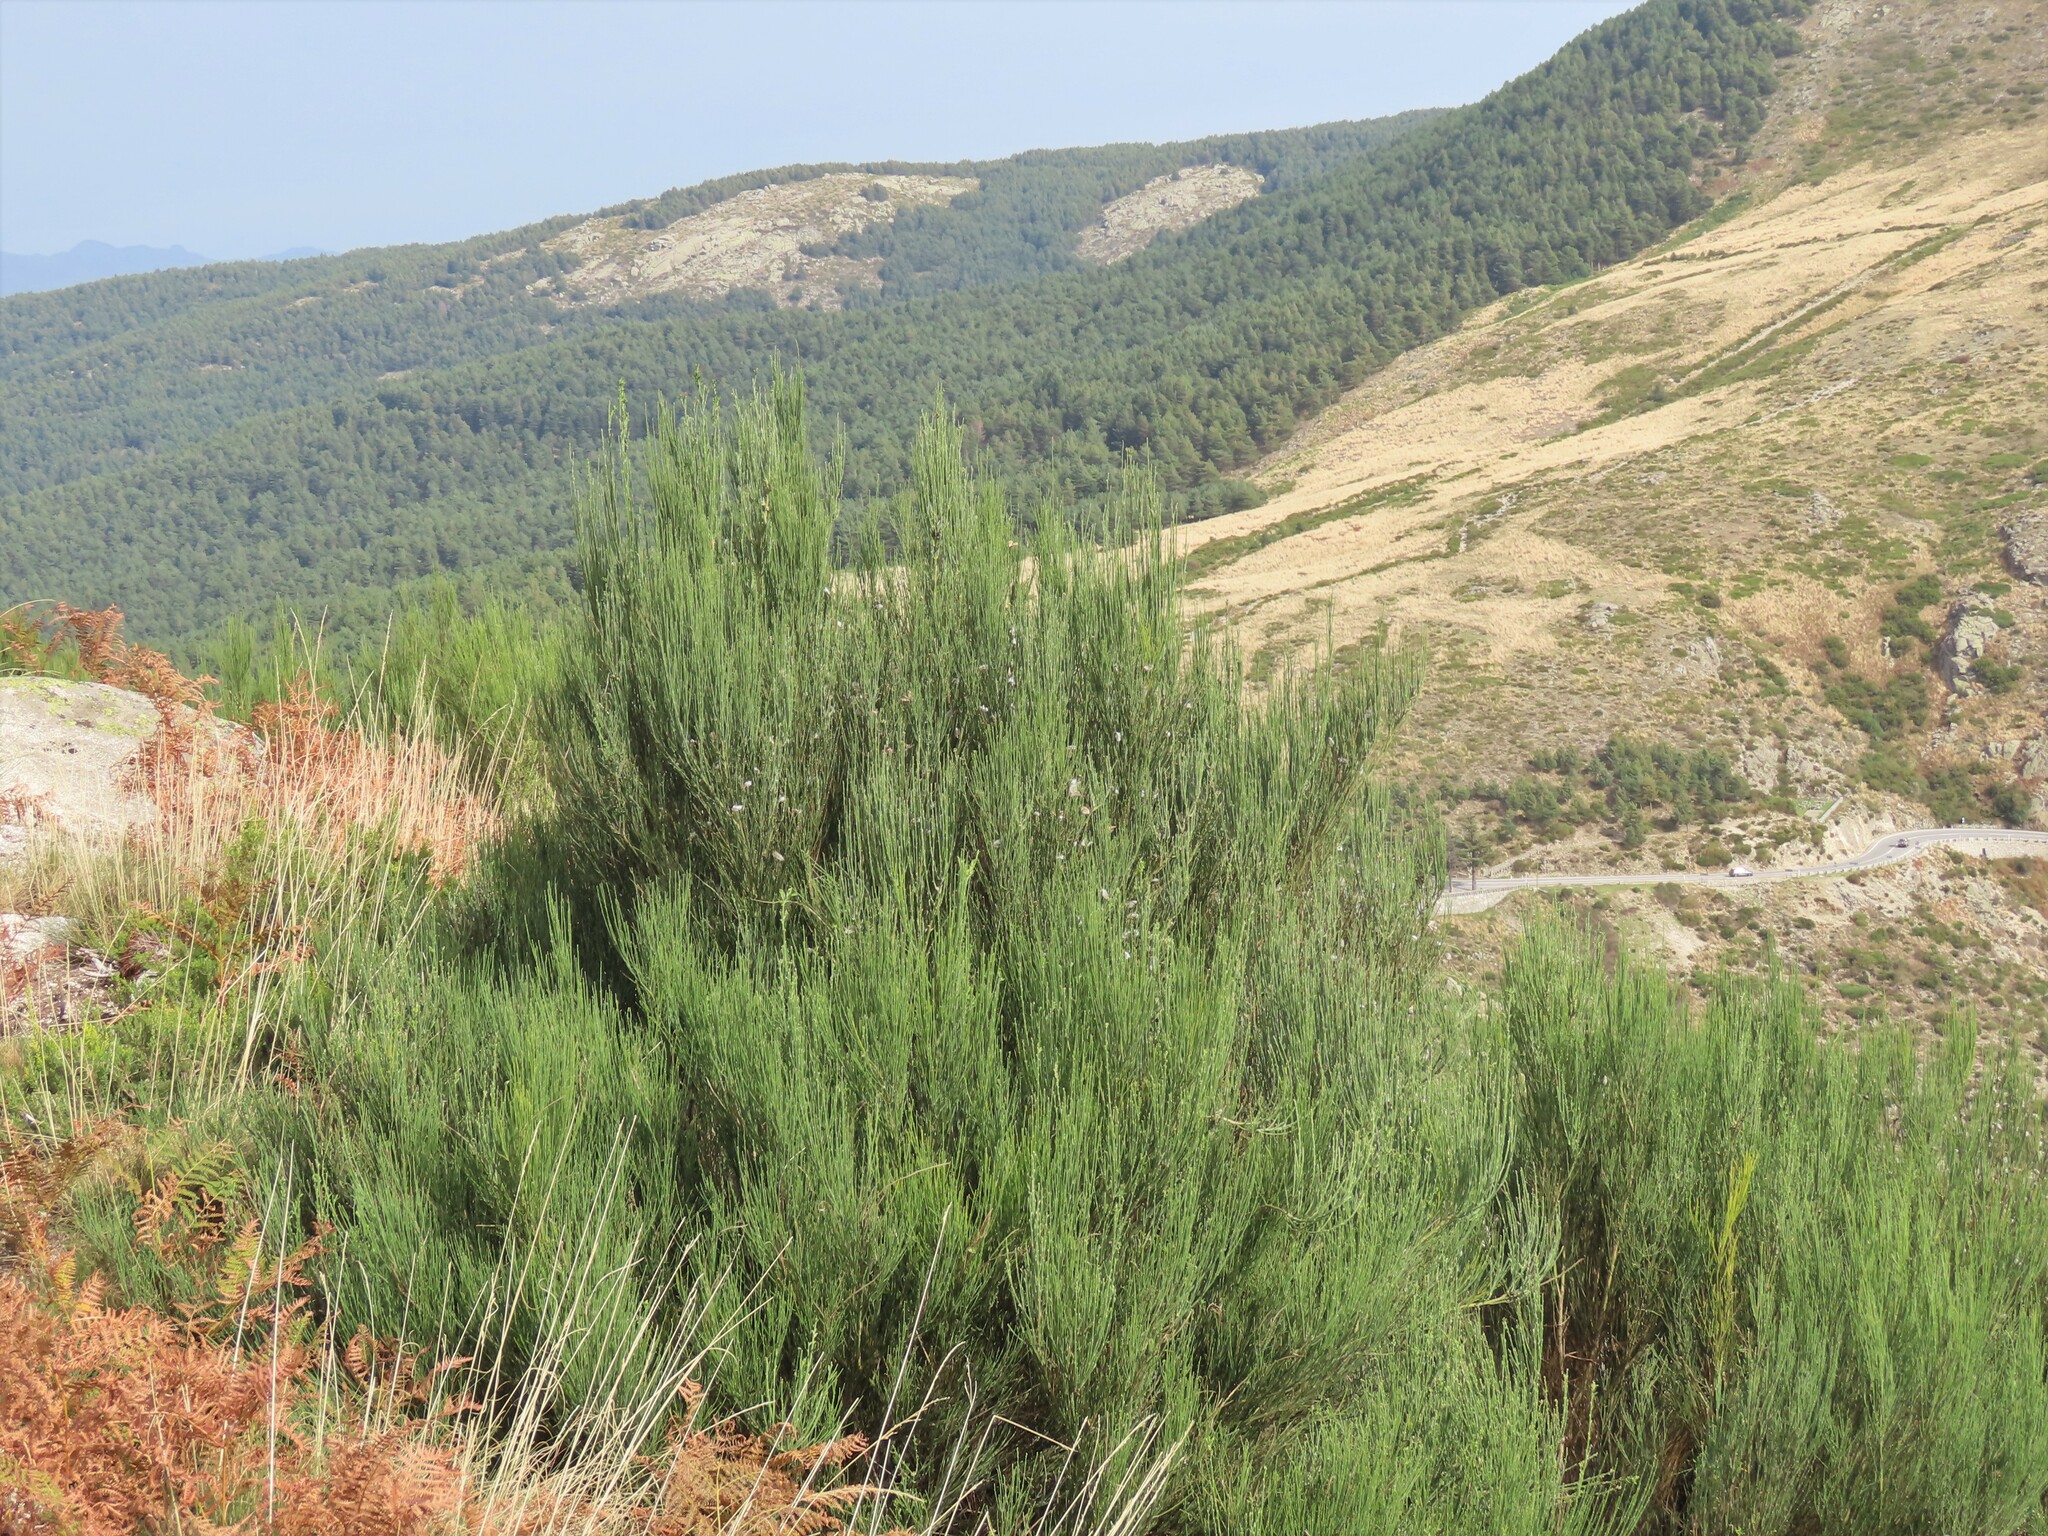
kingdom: Plantae
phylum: Tracheophyta
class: Magnoliopsida
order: Fabales
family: Fabaceae
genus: Cytisus
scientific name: Cytisus striatus
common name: Hairy-fruited broom
